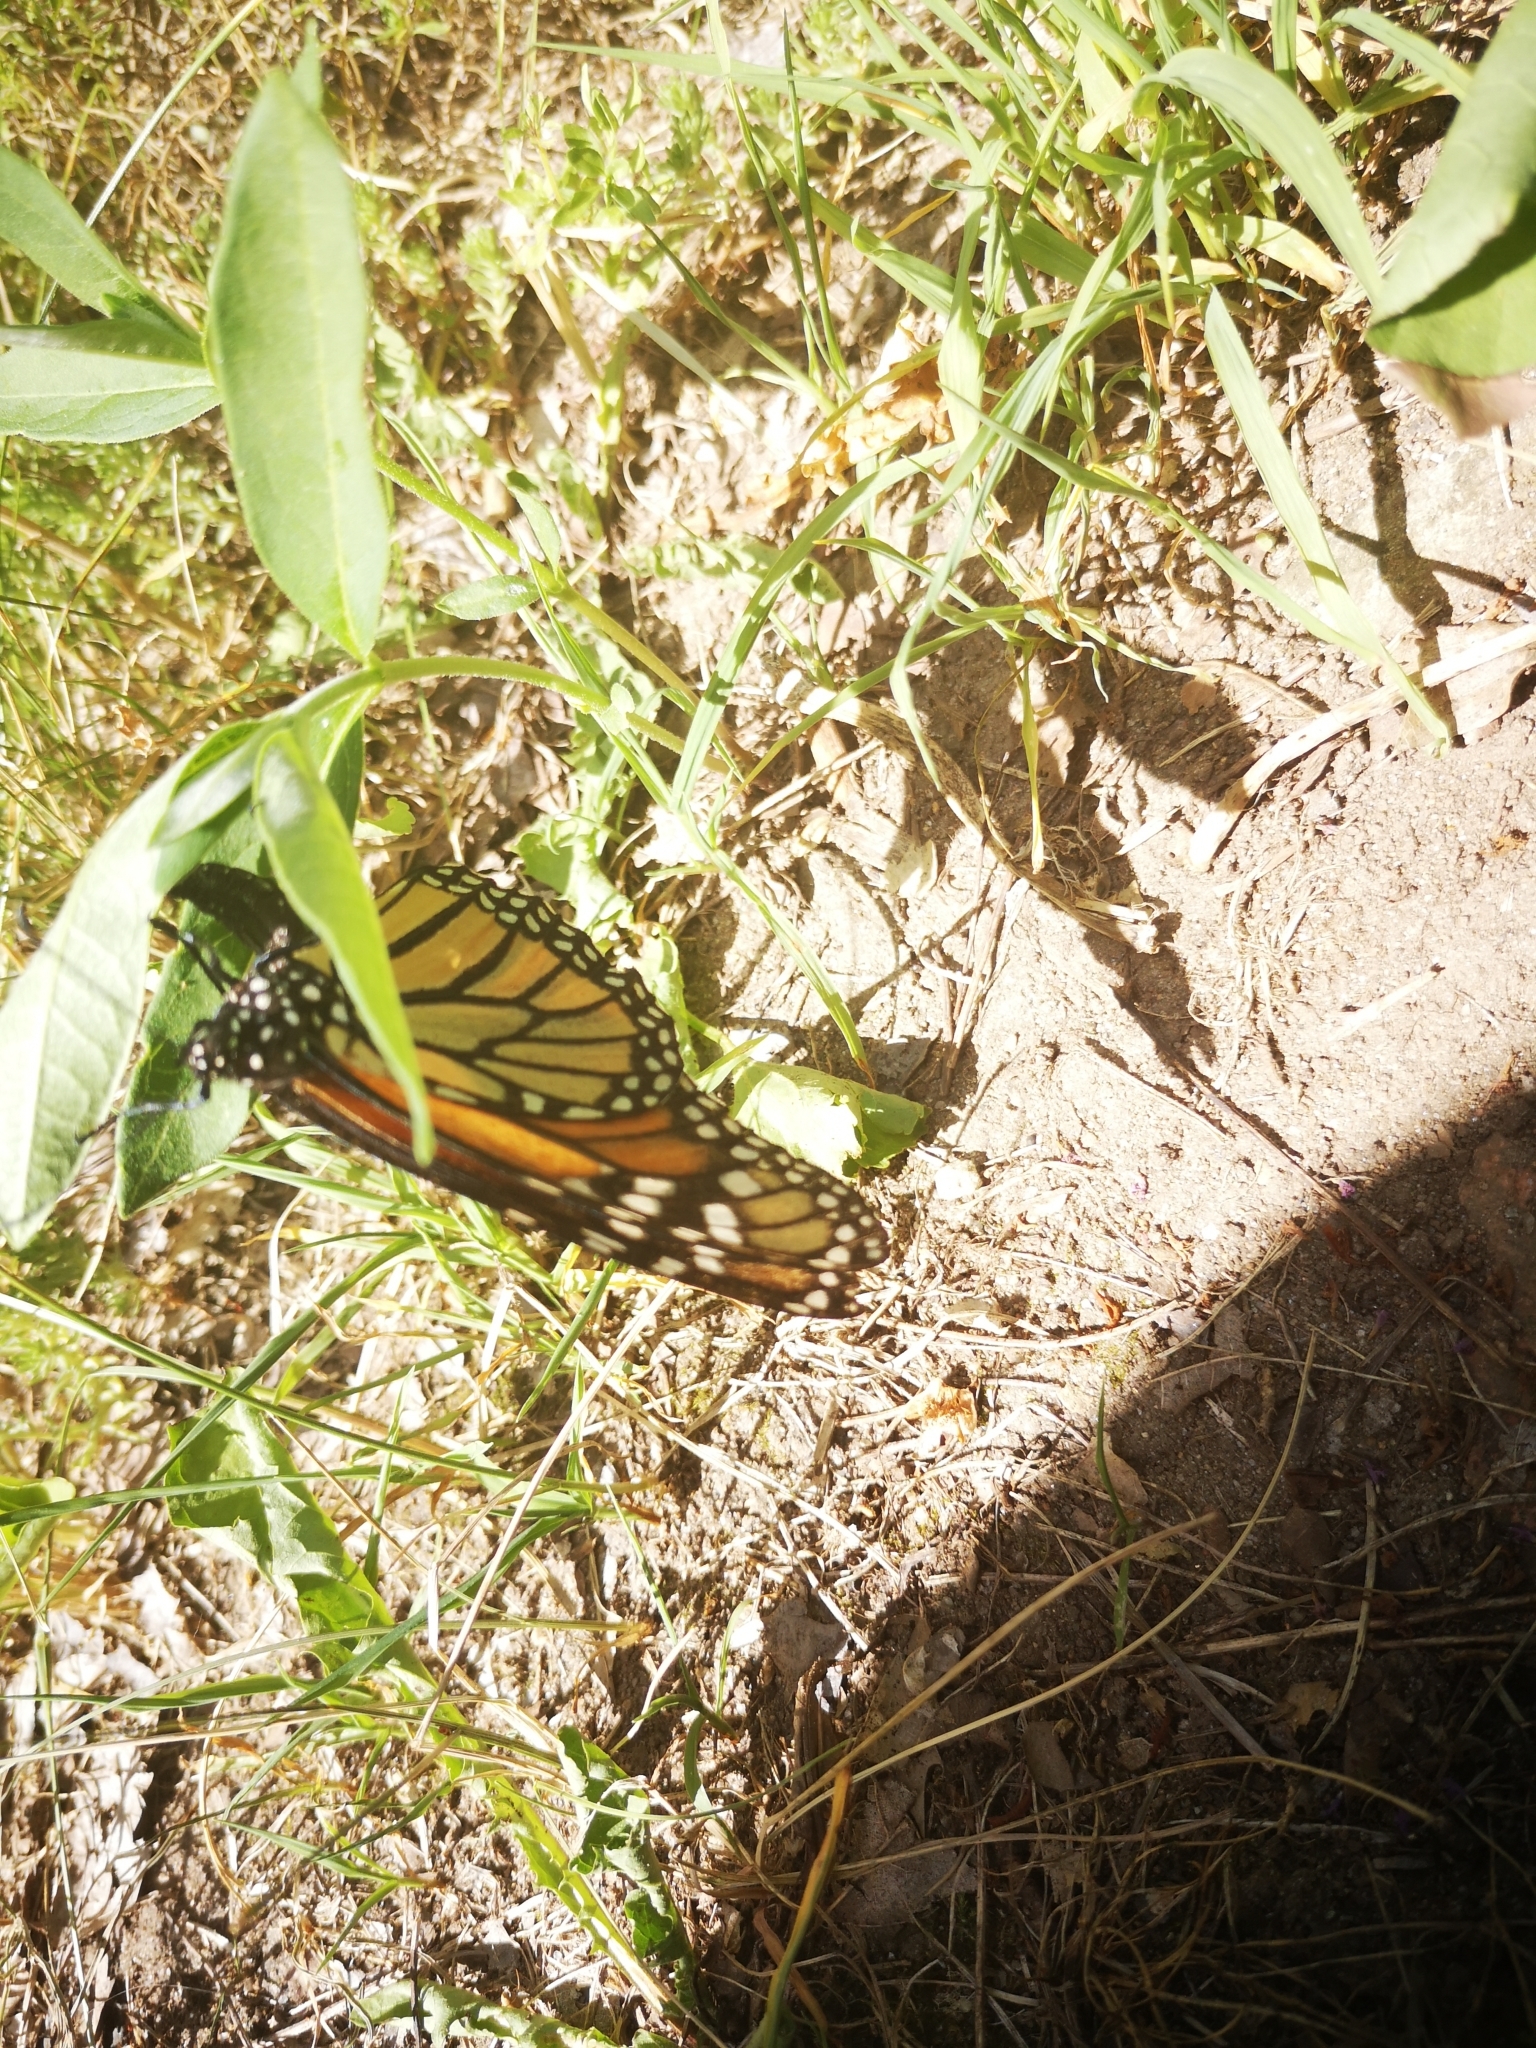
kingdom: Animalia
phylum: Arthropoda
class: Insecta
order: Lepidoptera
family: Nymphalidae
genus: Danaus
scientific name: Danaus plexippus
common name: Monarch
